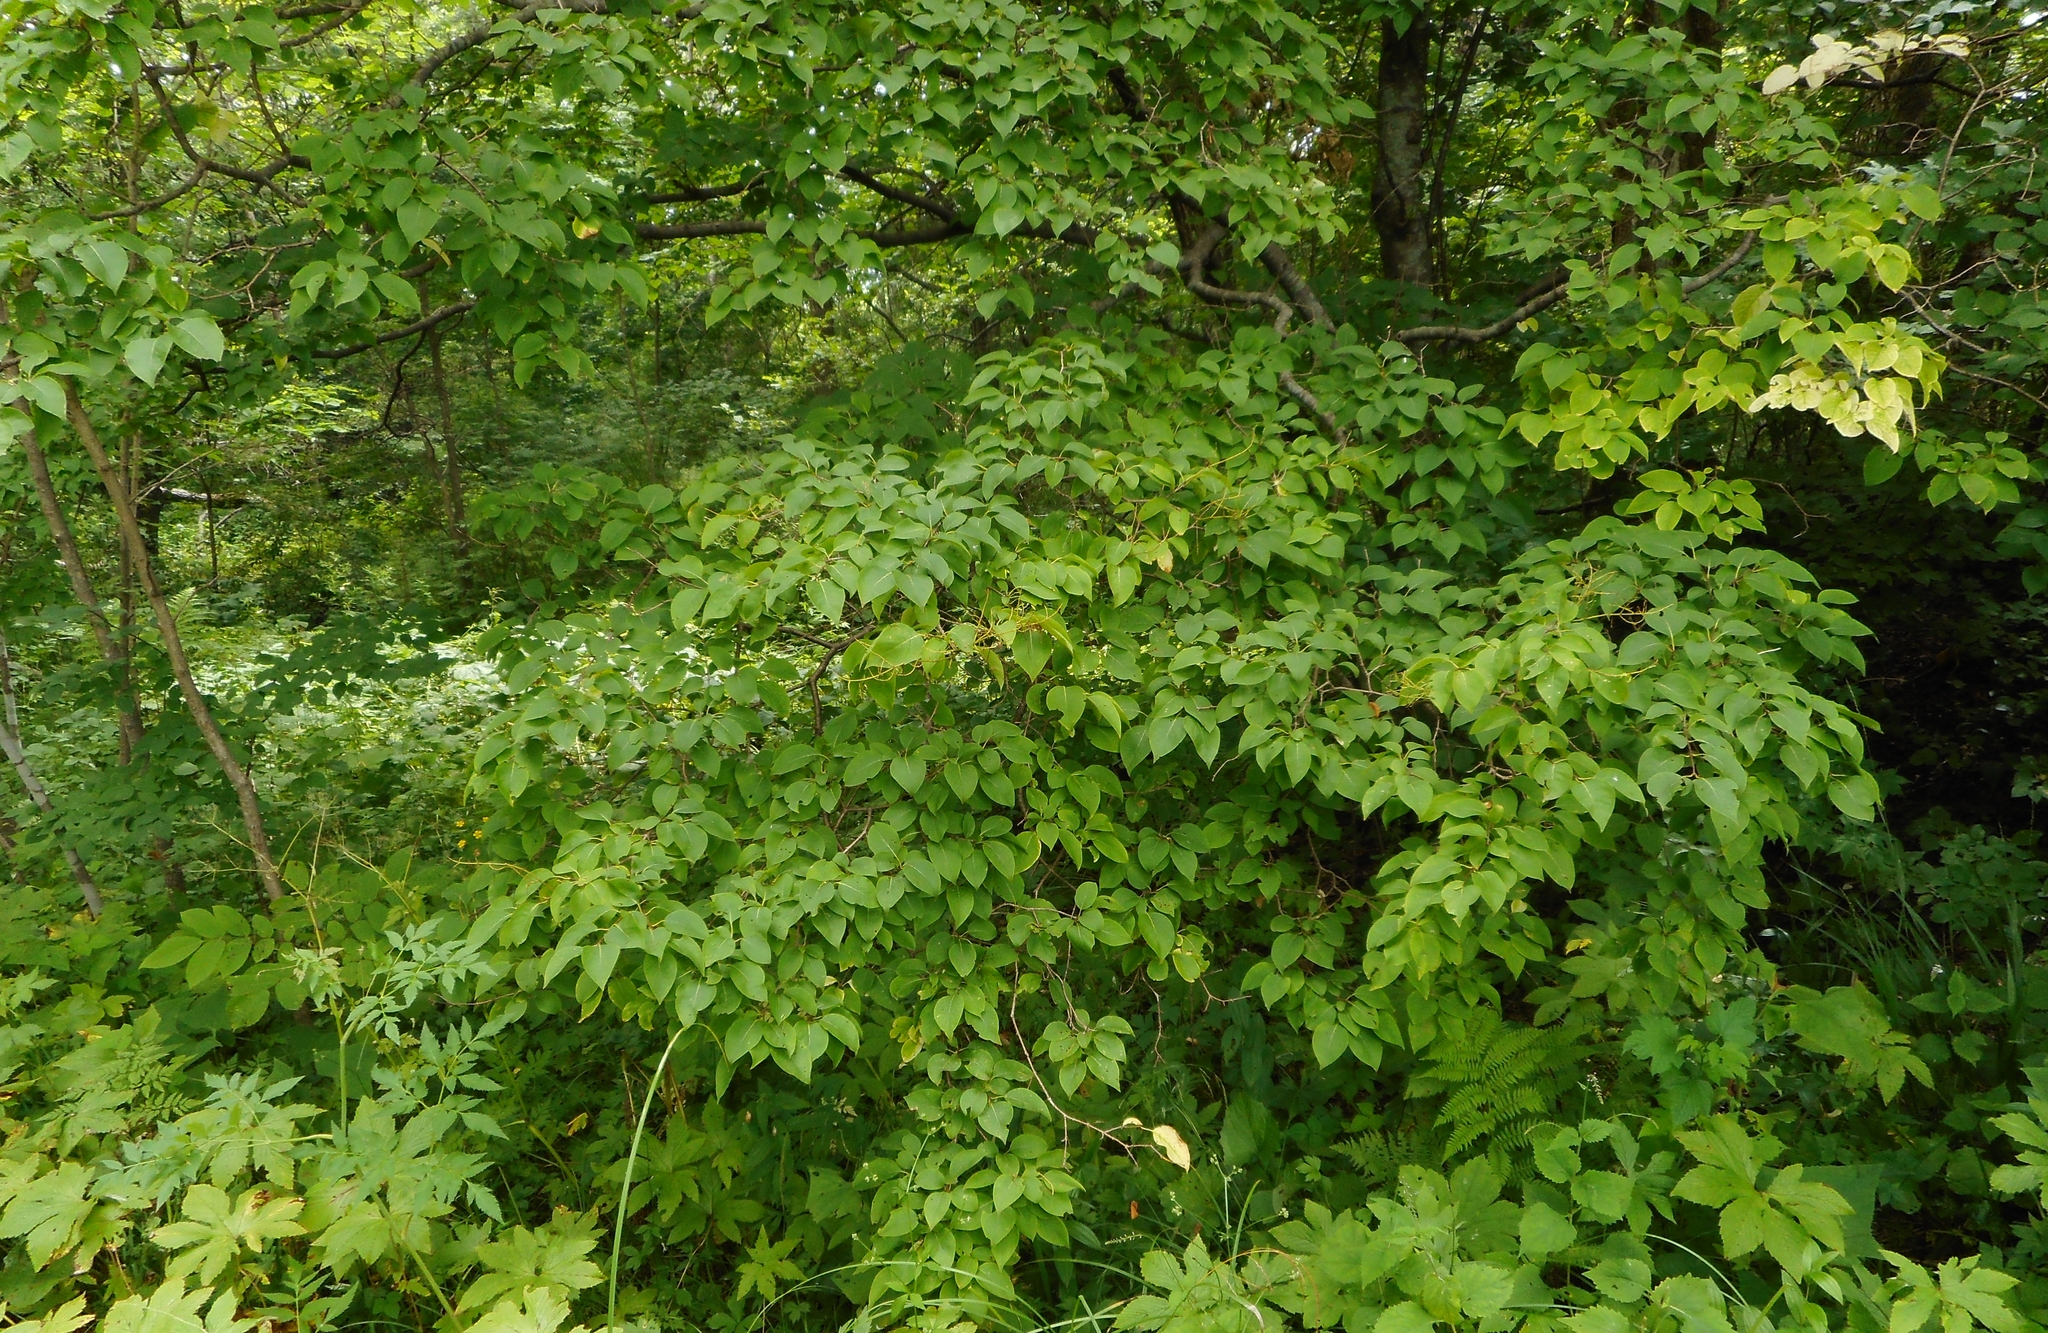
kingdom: Plantae
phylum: Tracheophyta
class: Magnoliopsida
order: Lamiales
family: Oleaceae
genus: Syringa
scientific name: Syringa reticulata
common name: Japanese tree lilac
